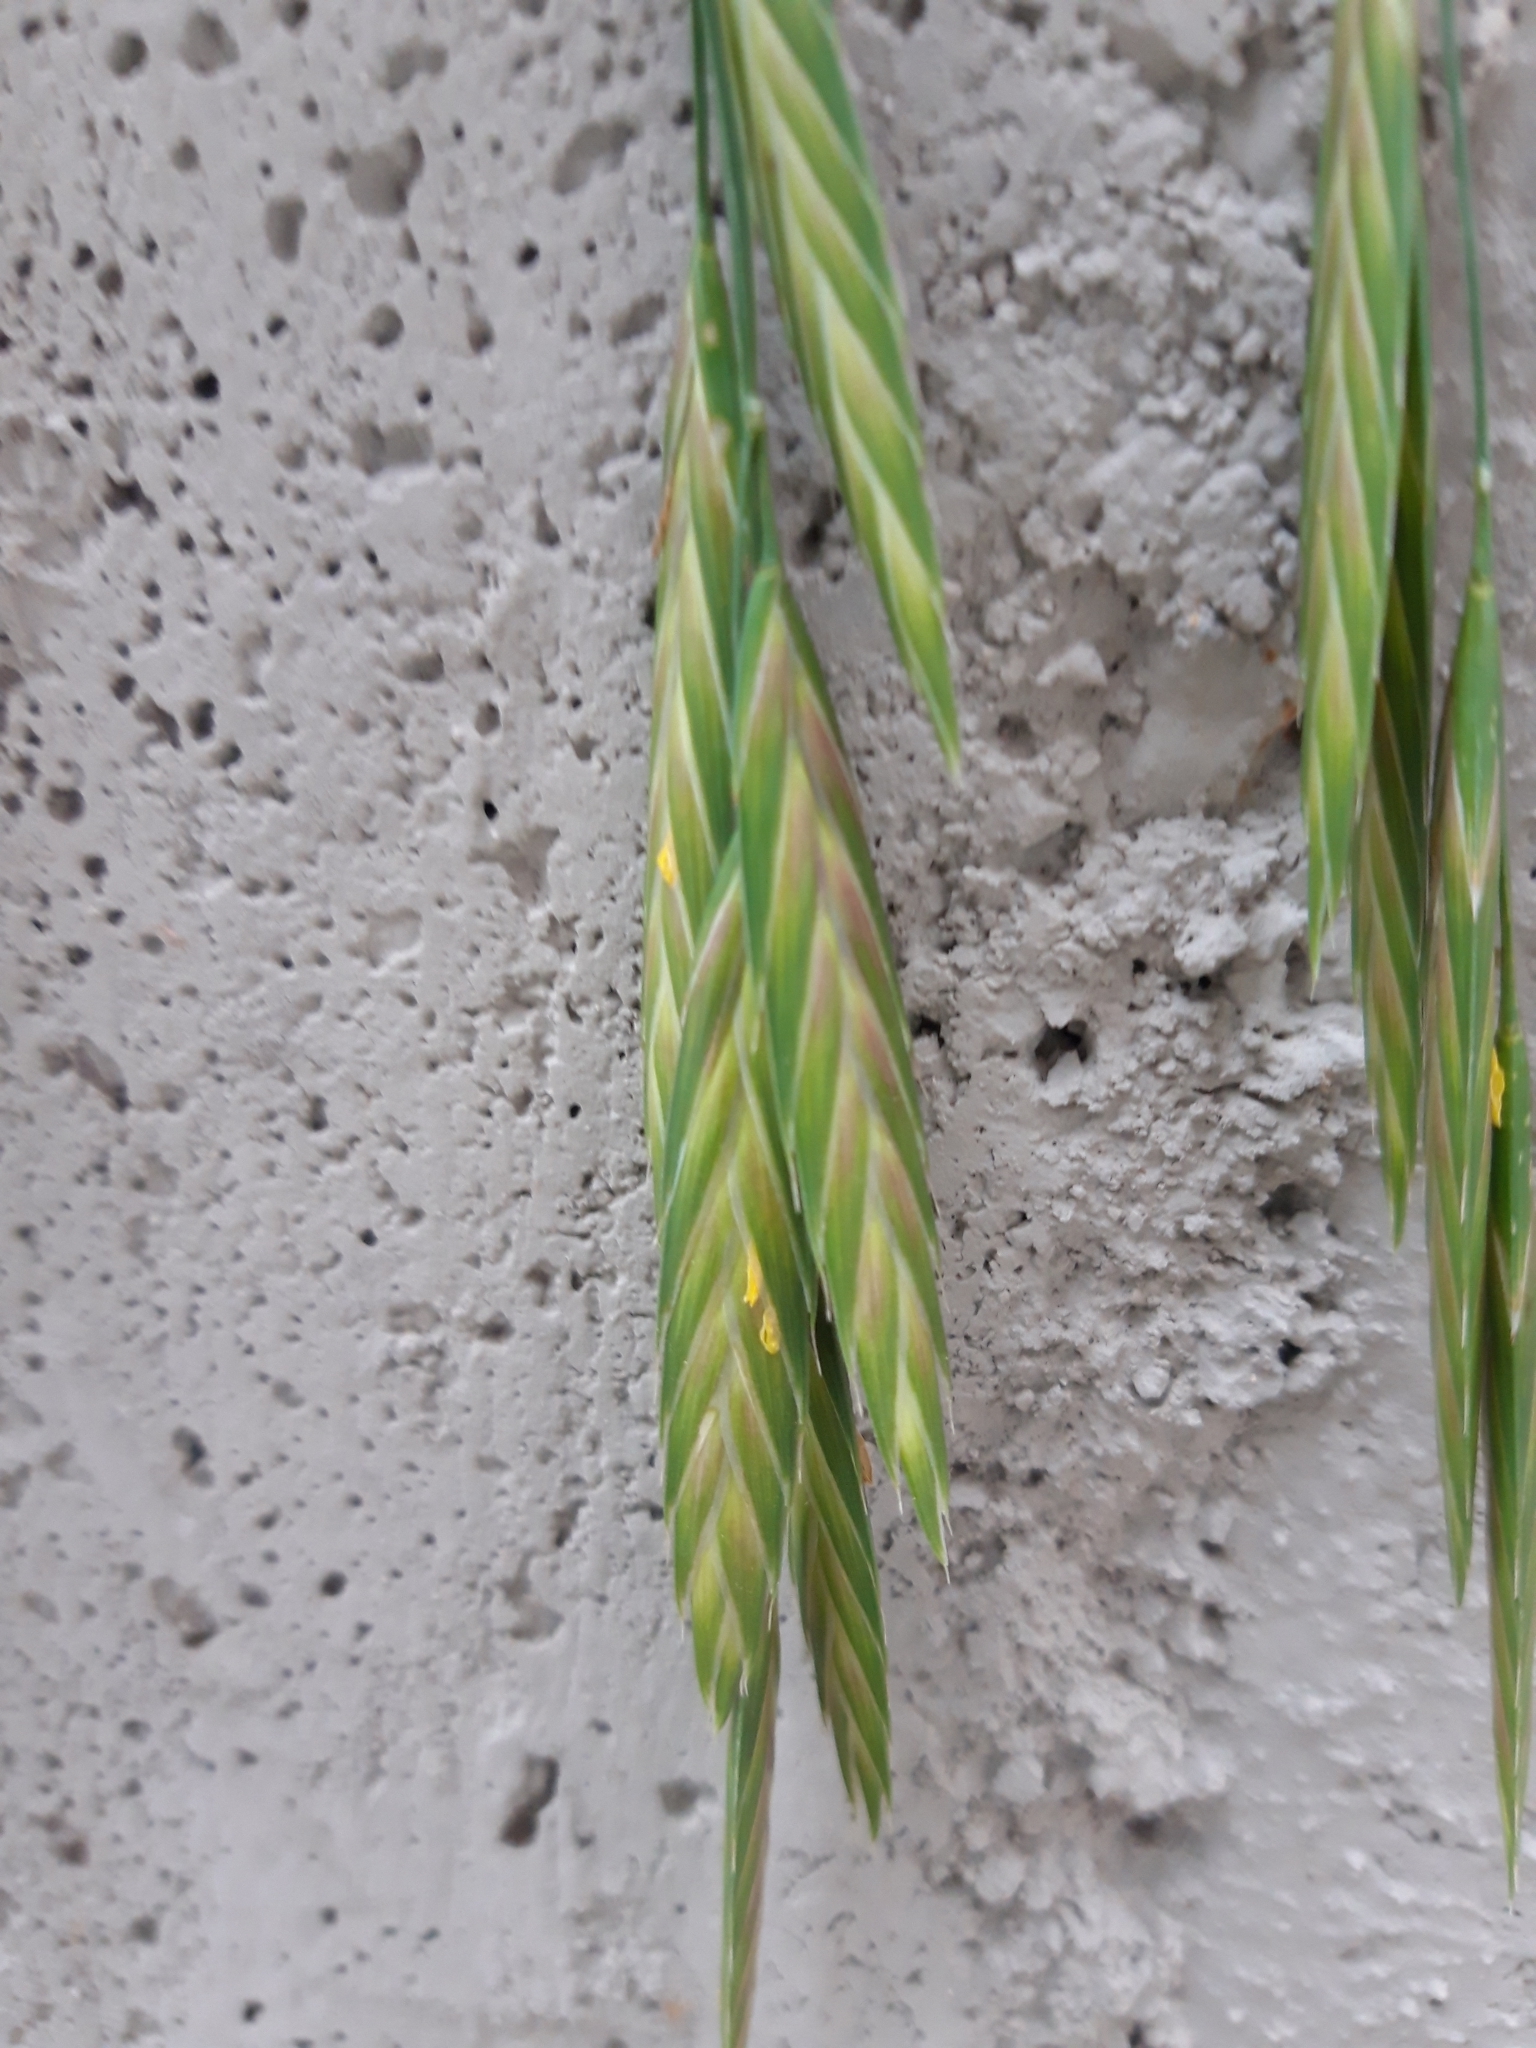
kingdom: Plantae
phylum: Tracheophyta
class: Liliopsida
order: Poales
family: Poaceae
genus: Bromus
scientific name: Bromus catharticus
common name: Rescuegrass
